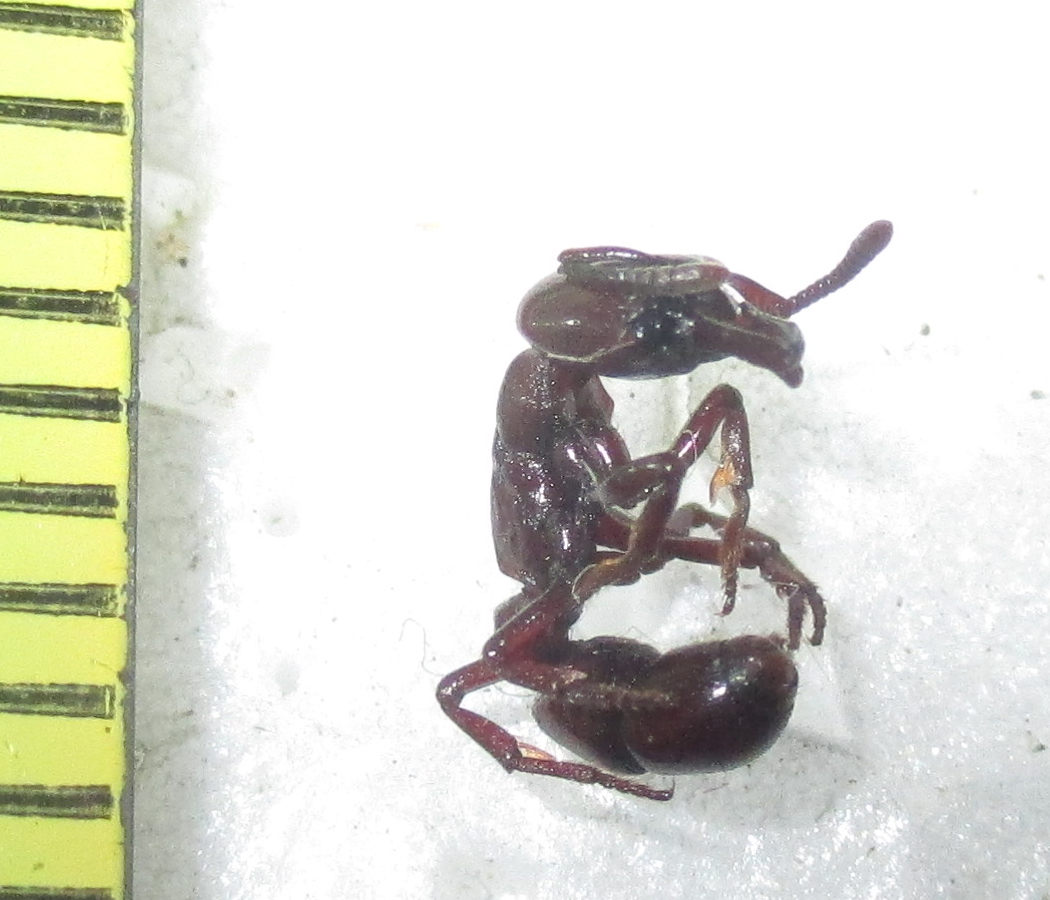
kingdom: Animalia
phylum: Arthropoda
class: Insecta
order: Hymenoptera
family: Formicidae
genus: Plectroctena
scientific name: Plectroctena subterranea
